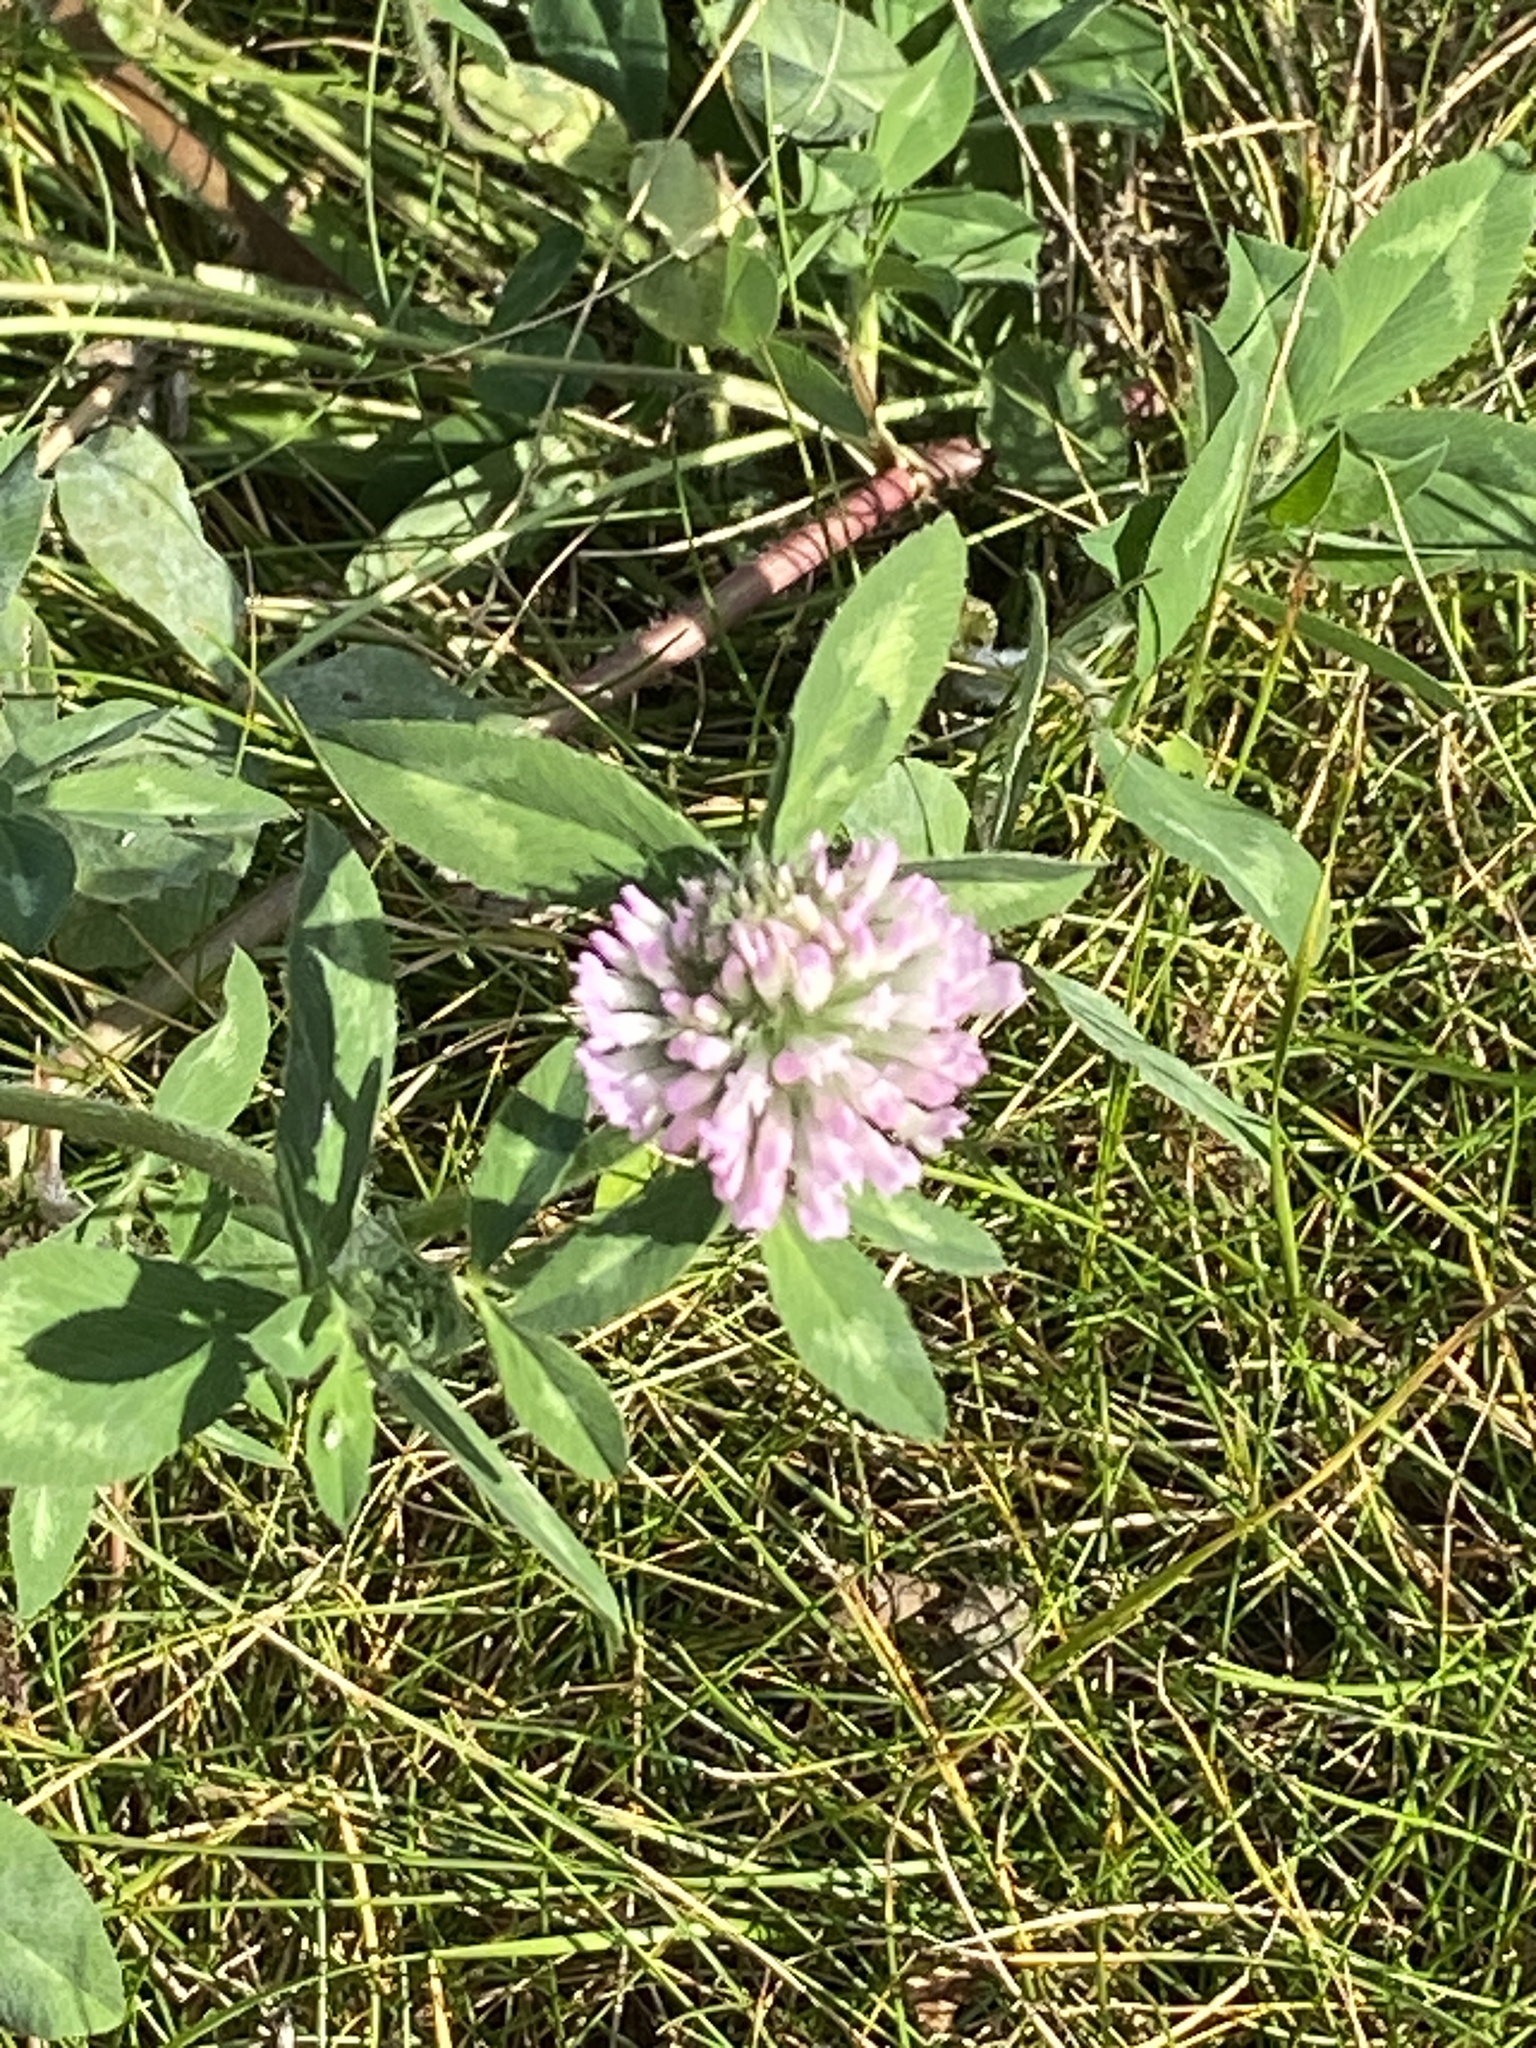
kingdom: Plantae
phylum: Tracheophyta
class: Magnoliopsida
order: Fabales
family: Fabaceae
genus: Trifolium
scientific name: Trifolium pratense
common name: Red clover
